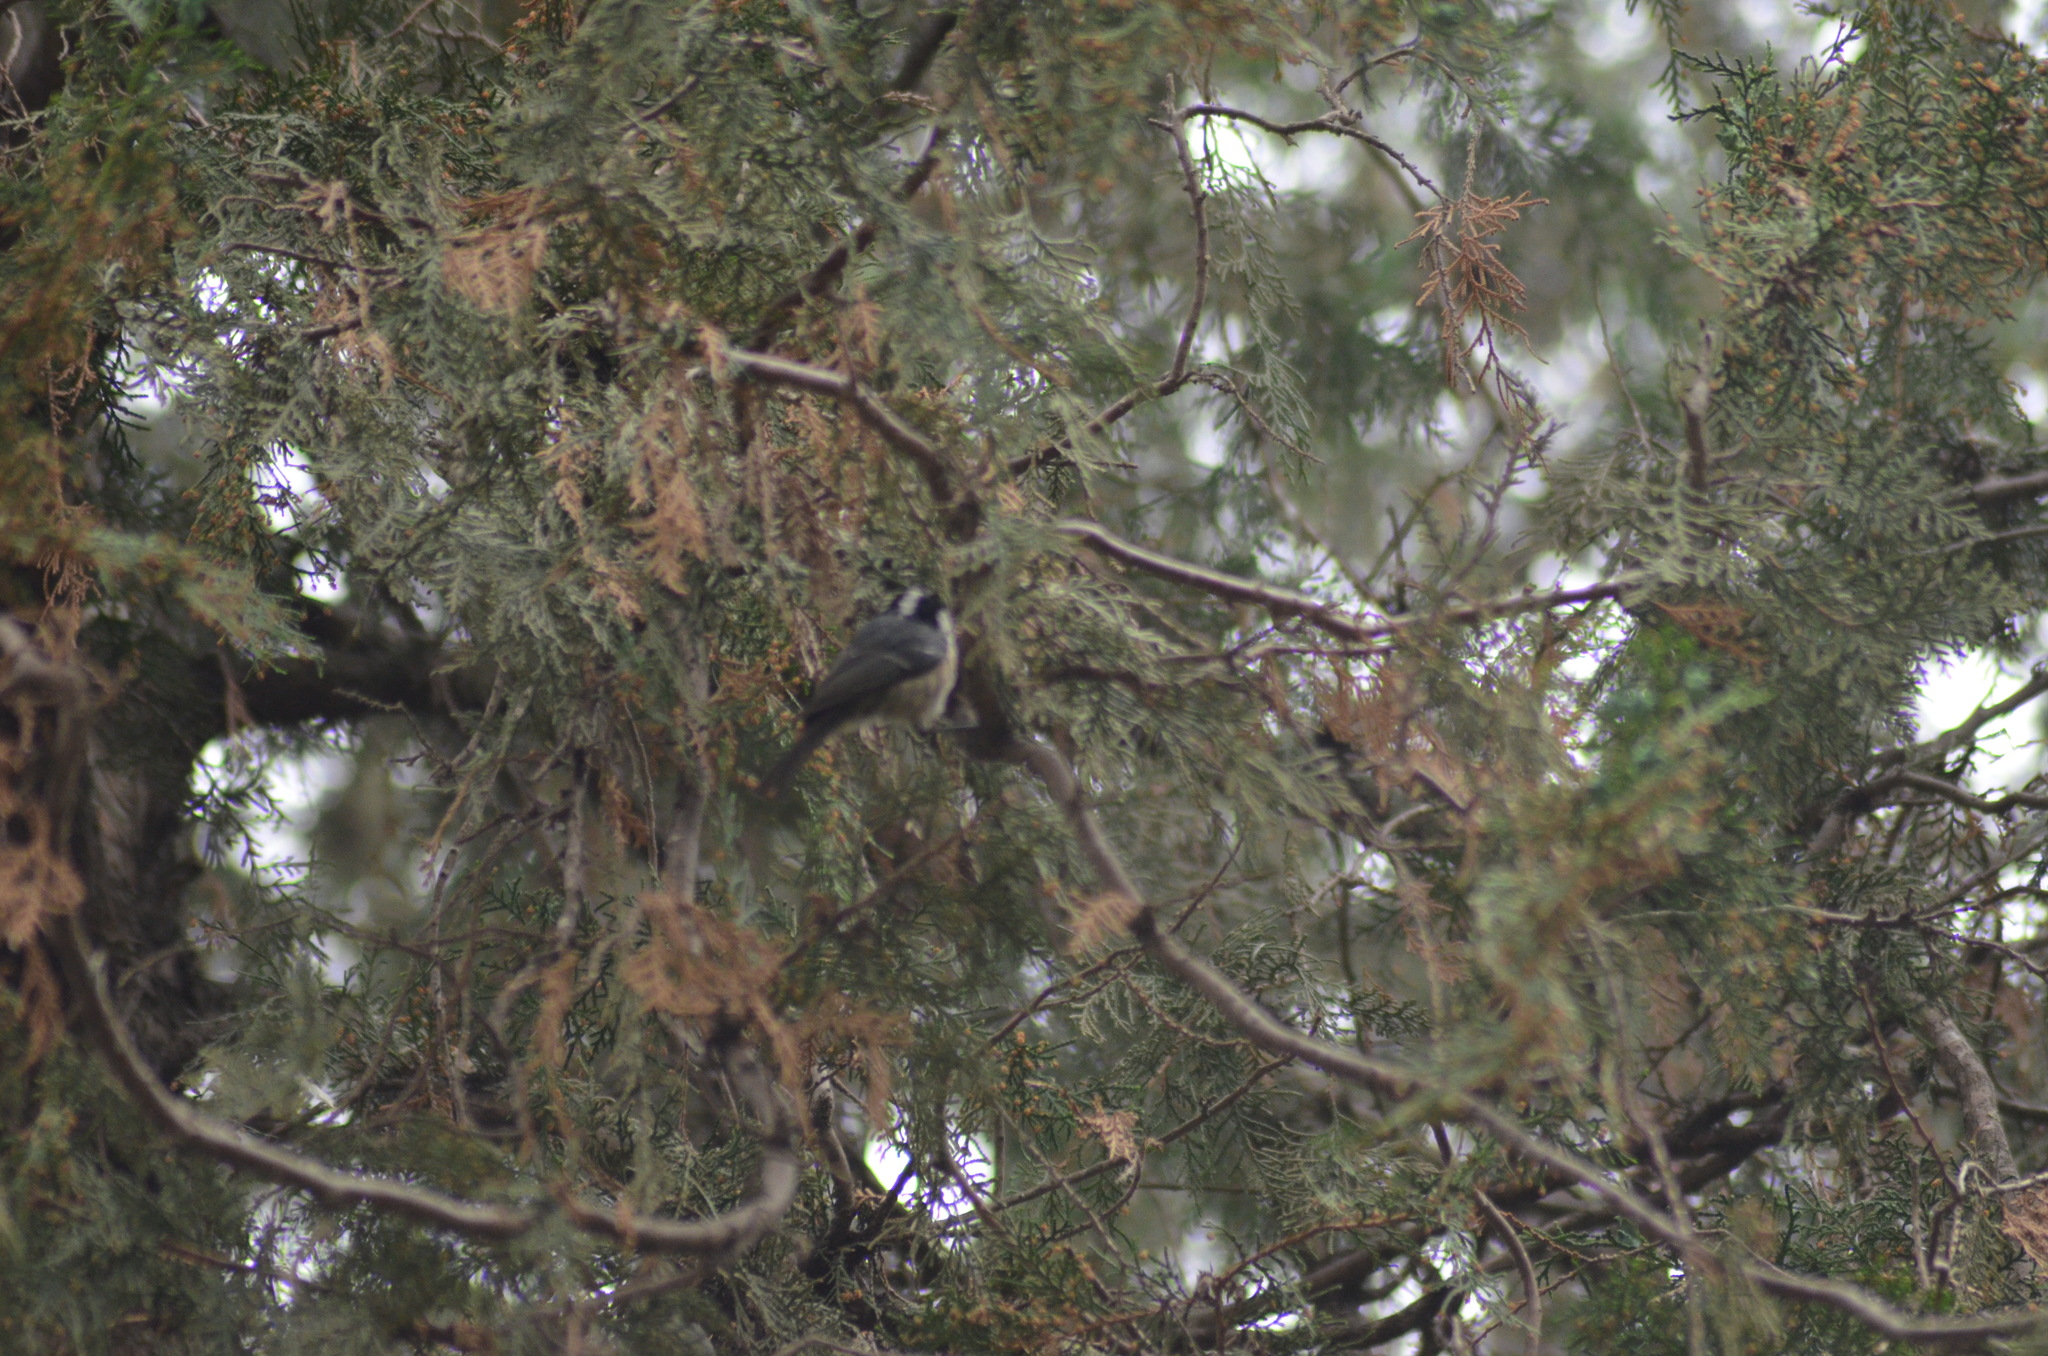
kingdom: Animalia
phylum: Chordata
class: Aves
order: Passeriformes
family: Paridae
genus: Periparus
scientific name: Periparus ater
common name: Coal tit
